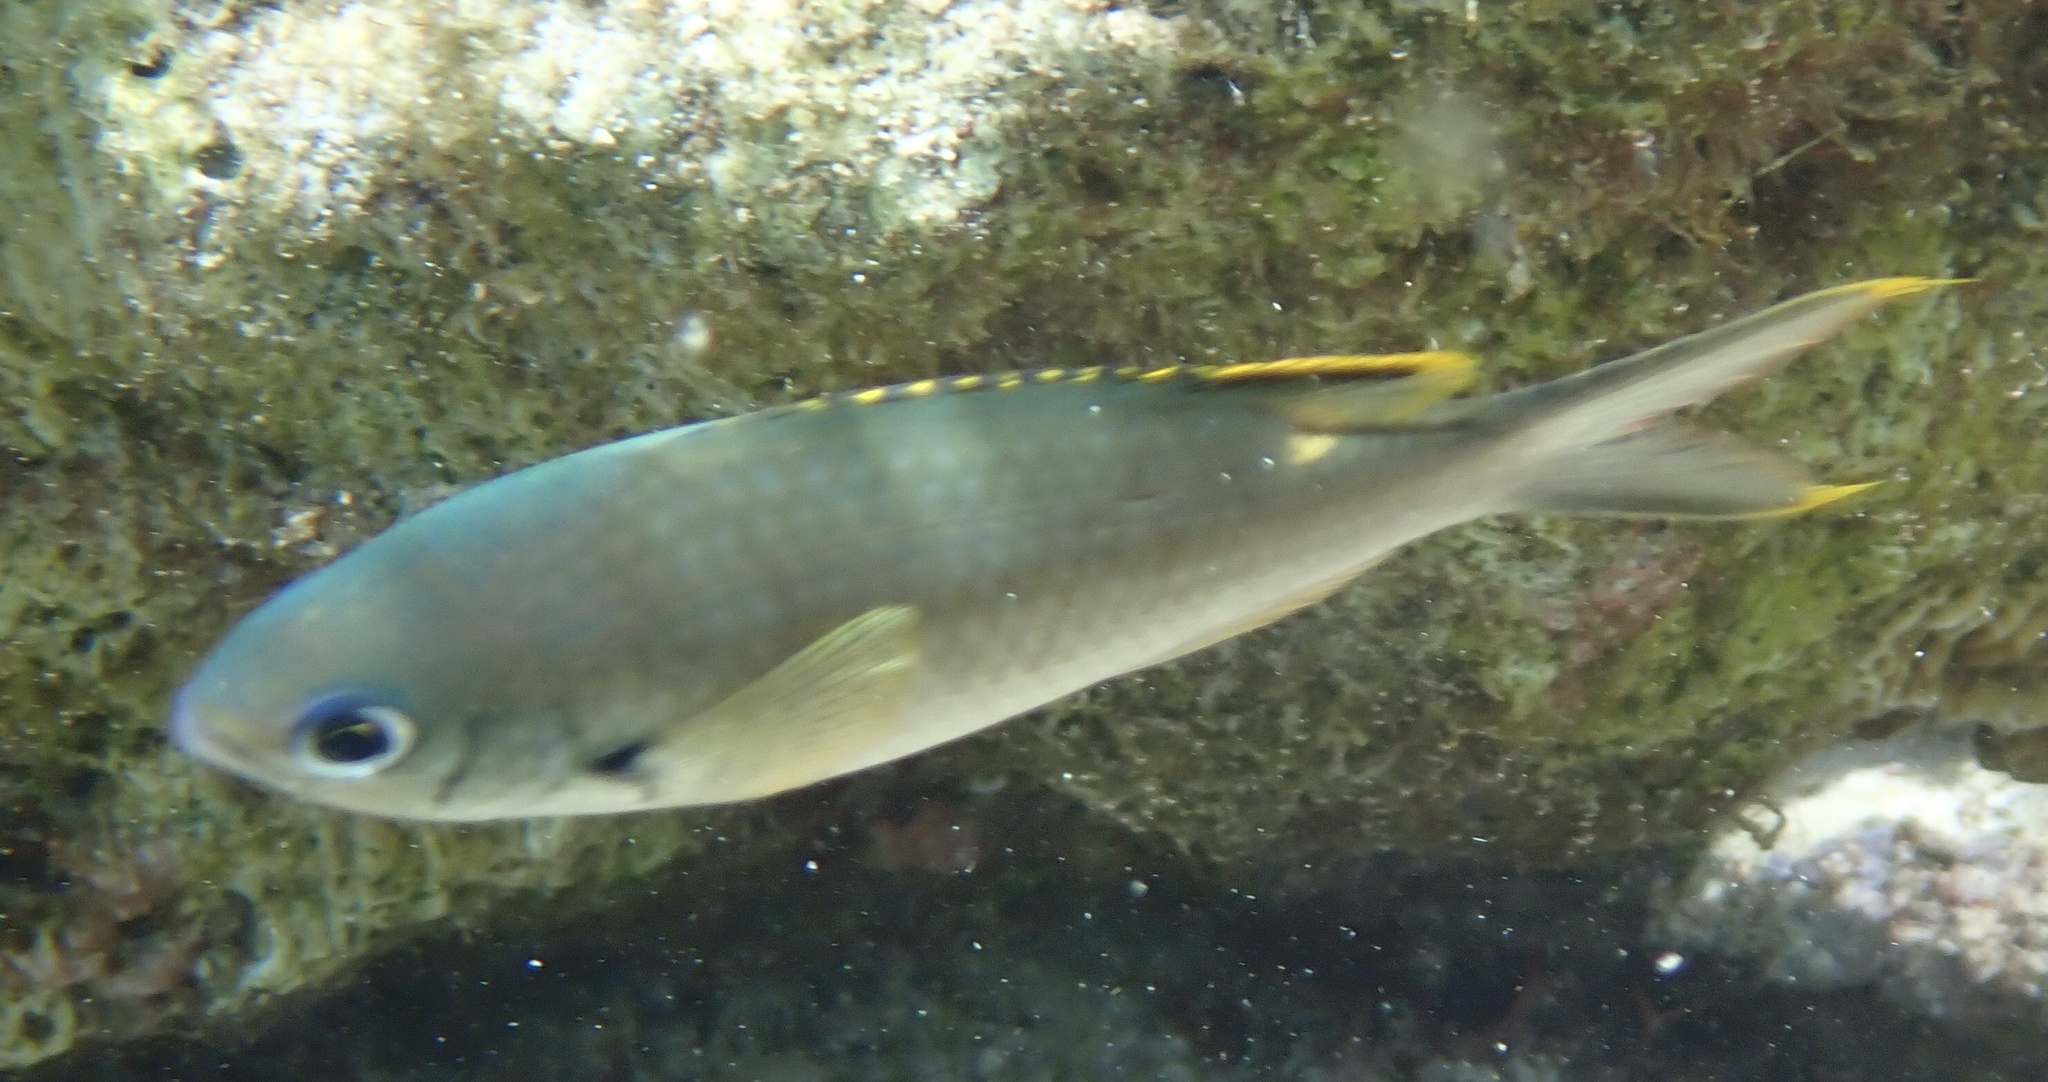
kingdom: Animalia
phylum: Chordata
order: Perciformes
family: Pomacentridae
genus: Chromis
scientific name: Chromis multilineata
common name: Brown chromis
